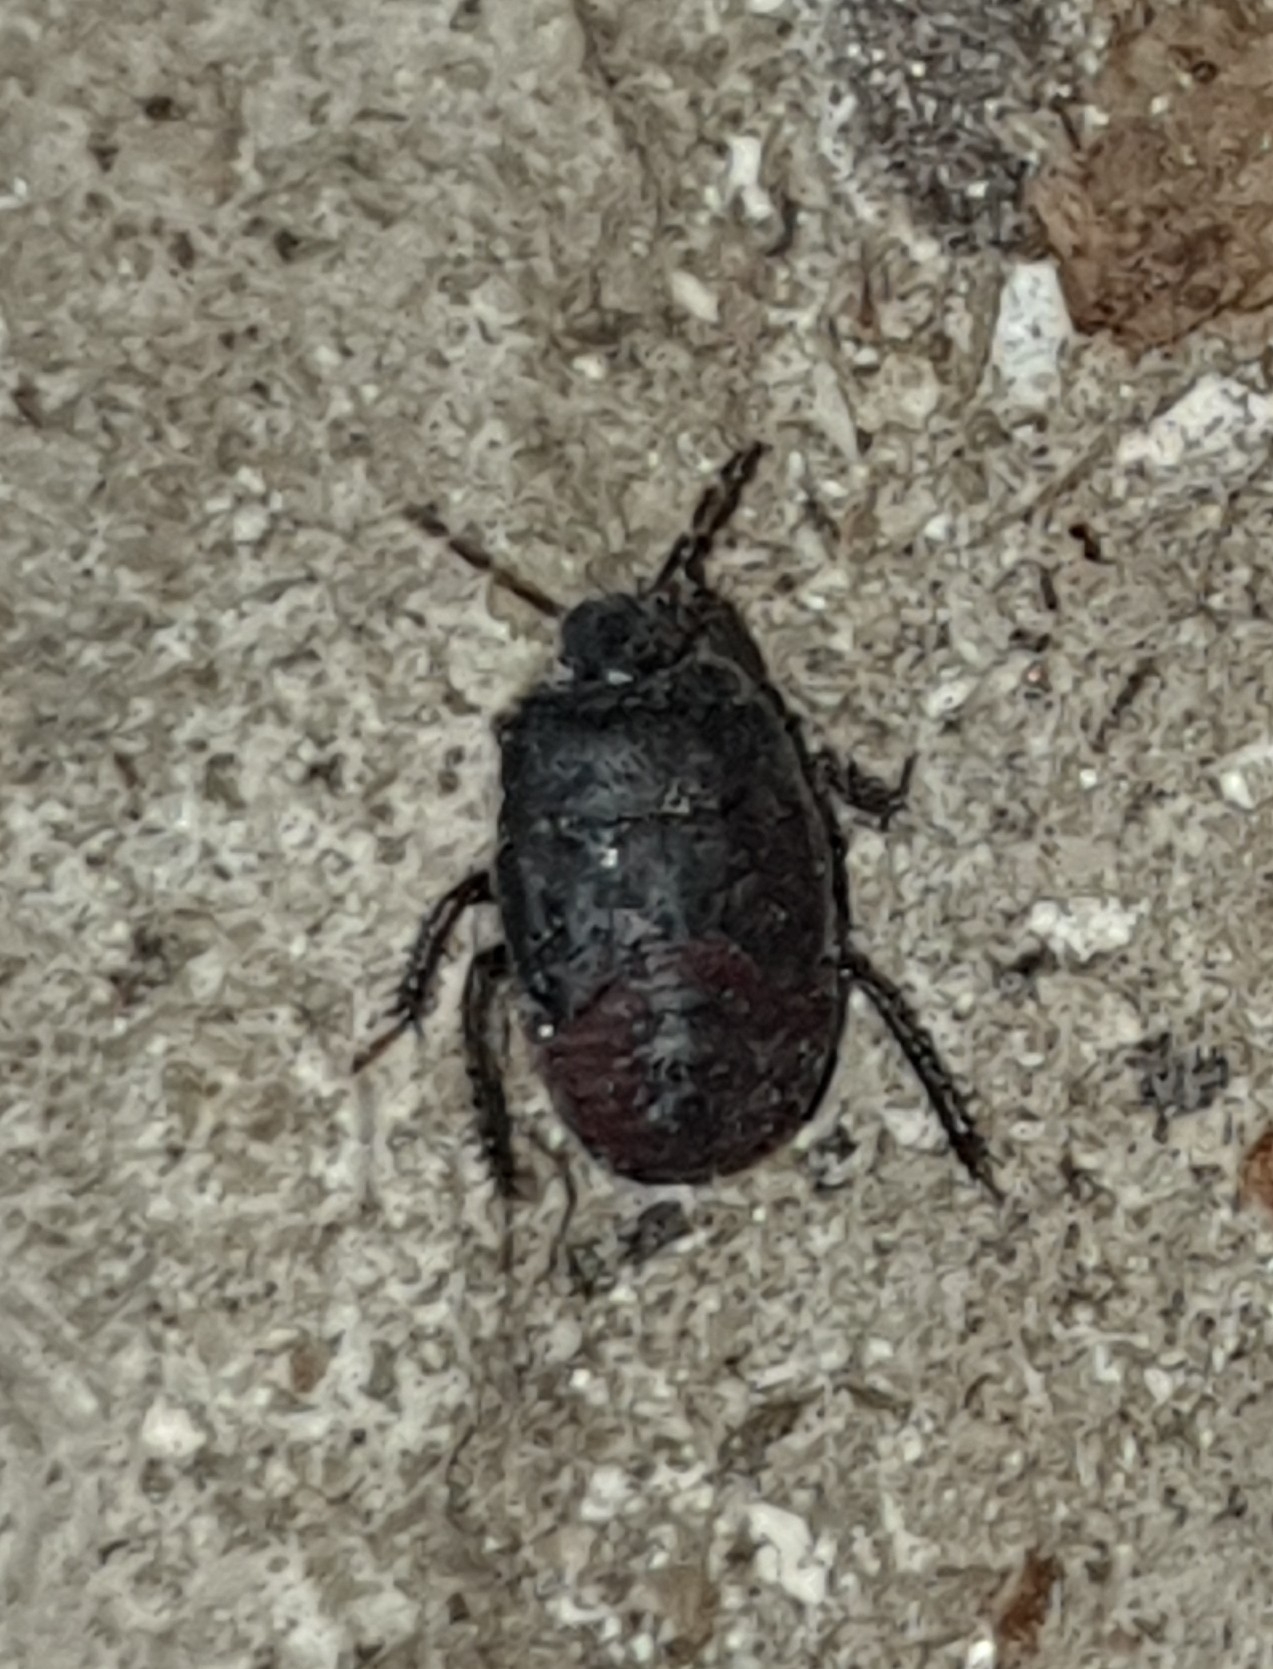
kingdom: Animalia
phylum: Arthropoda
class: Insecta
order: Hemiptera
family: Cydnidae
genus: Cydnus
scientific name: Cydnus aterrimus
